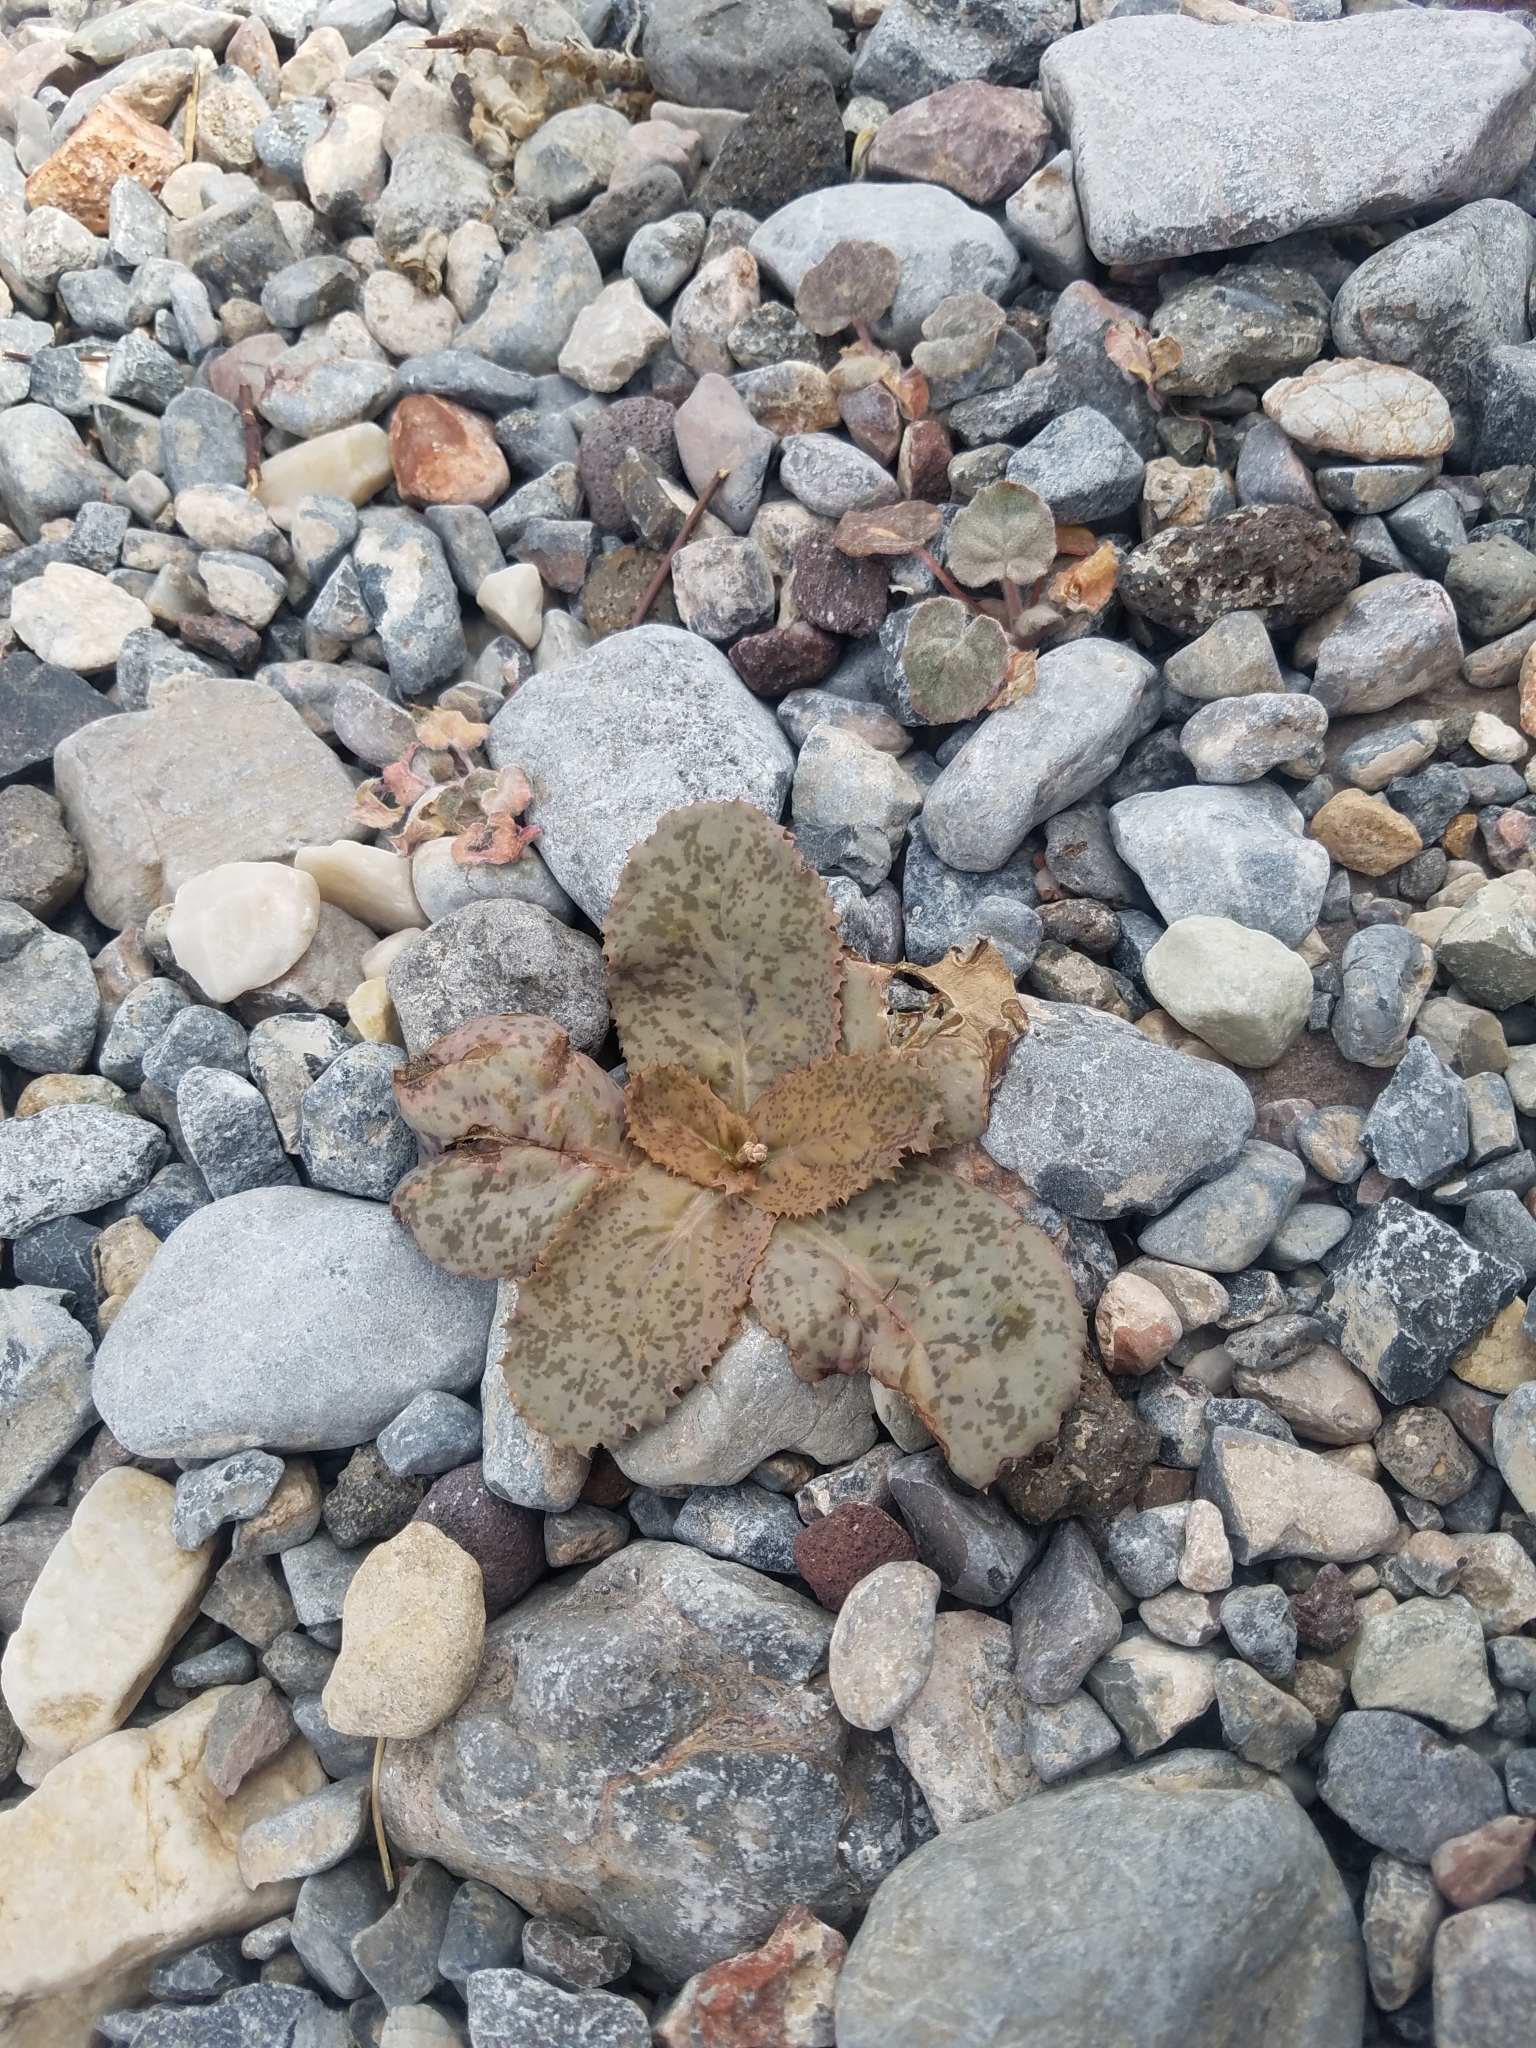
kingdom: Plantae
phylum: Tracheophyta
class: Magnoliopsida
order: Asterales
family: Asteraceae
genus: Atrichoseris
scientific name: Atrichoseris platyphylla
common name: Tobaccoweed
